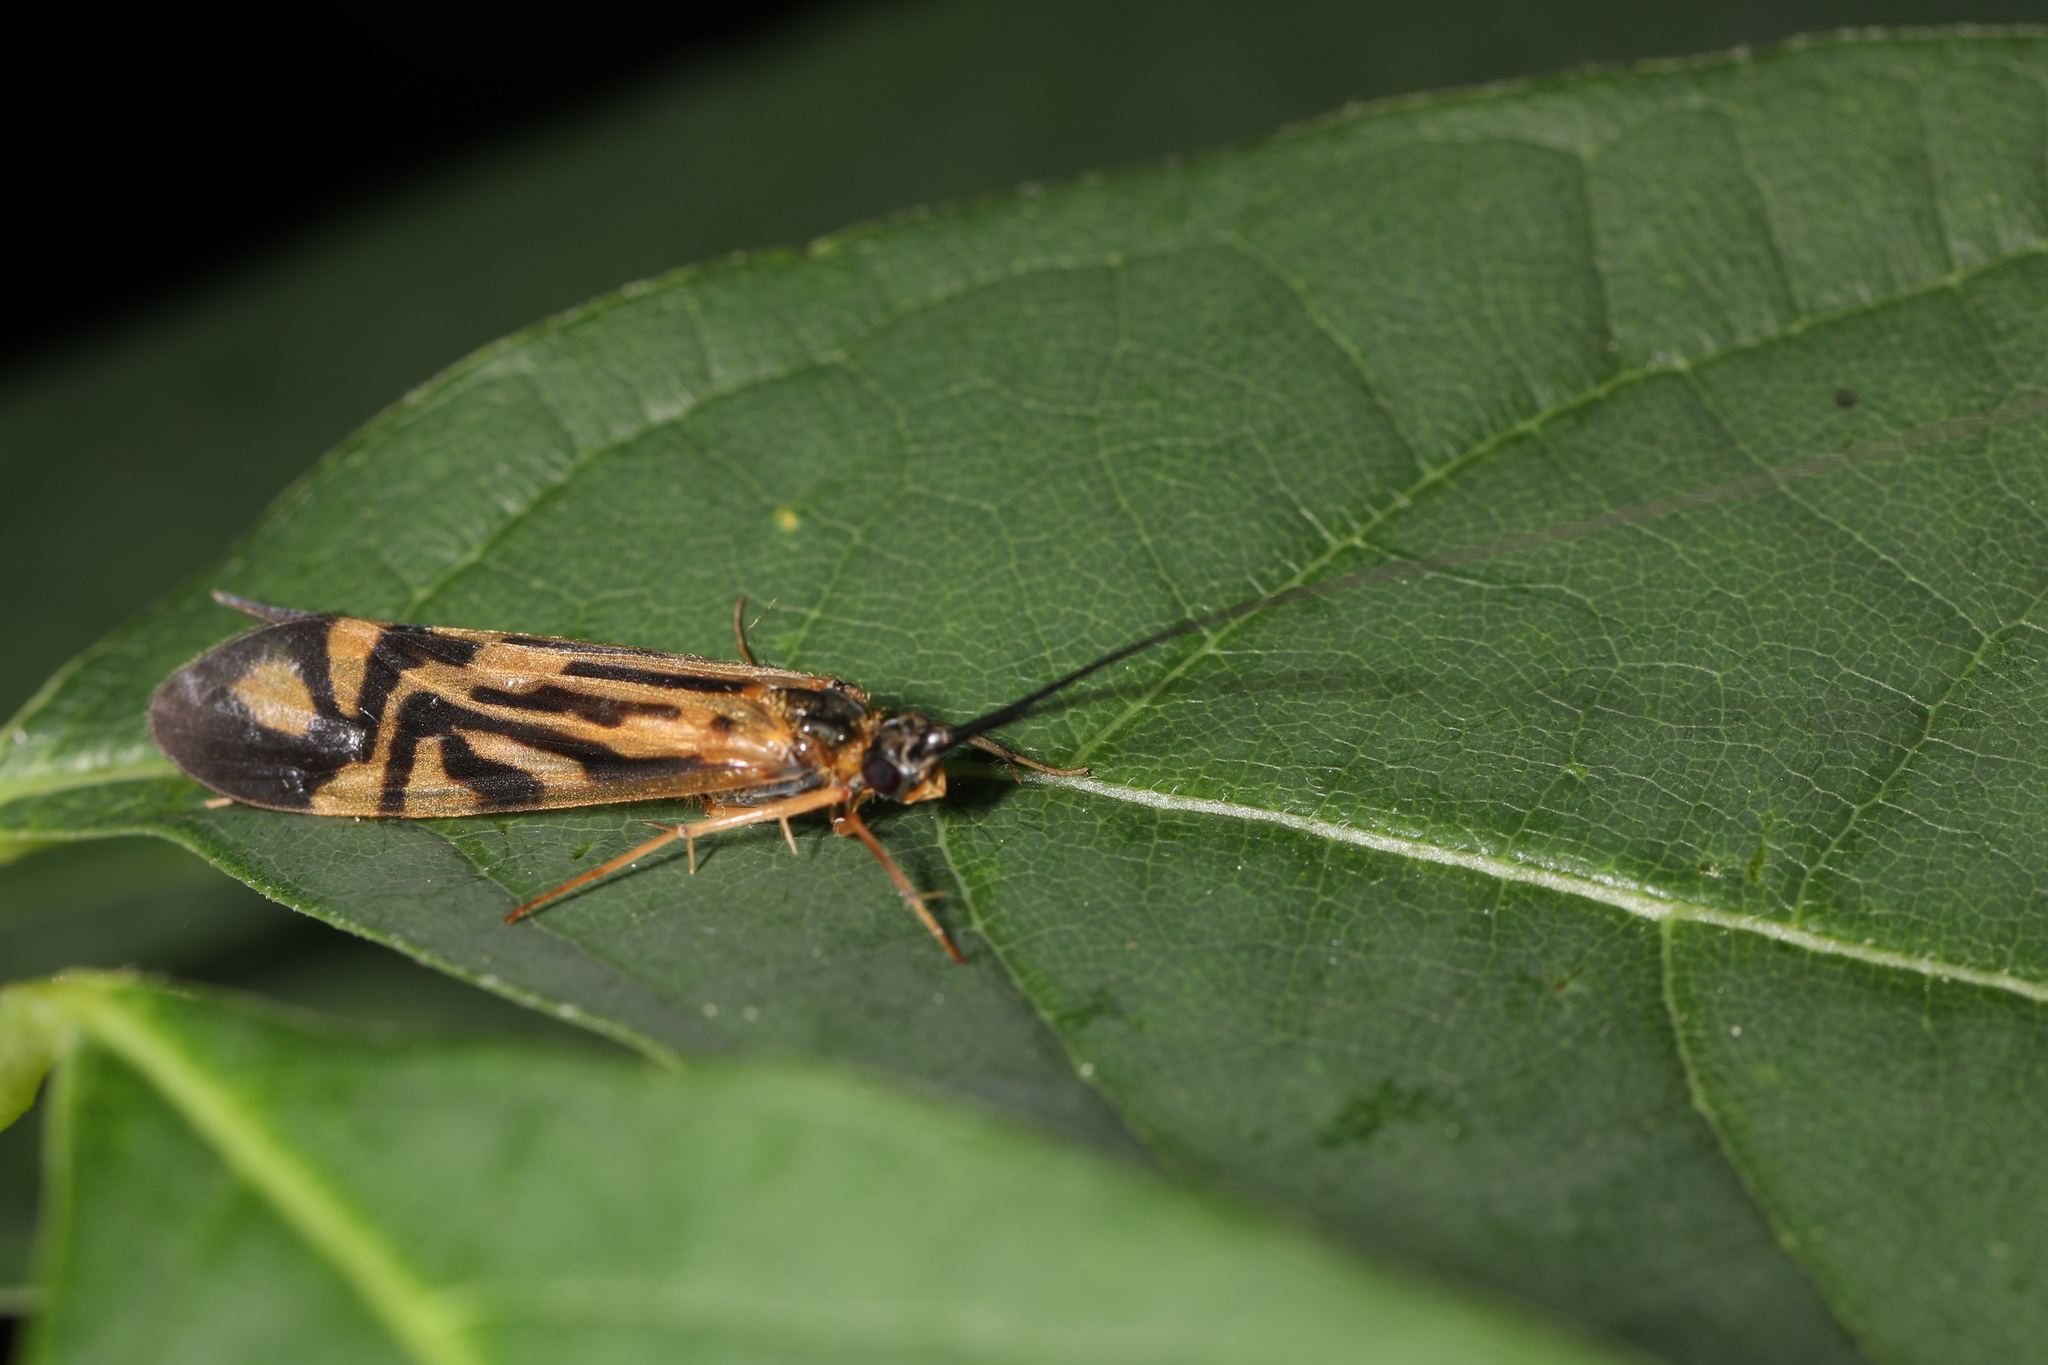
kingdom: Animalia
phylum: Arthropoda
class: Insecta
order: Trichoptera
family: Hydropsychidae
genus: Macrostemum
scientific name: Macrostemum zebratum
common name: Zebra caddisfly
